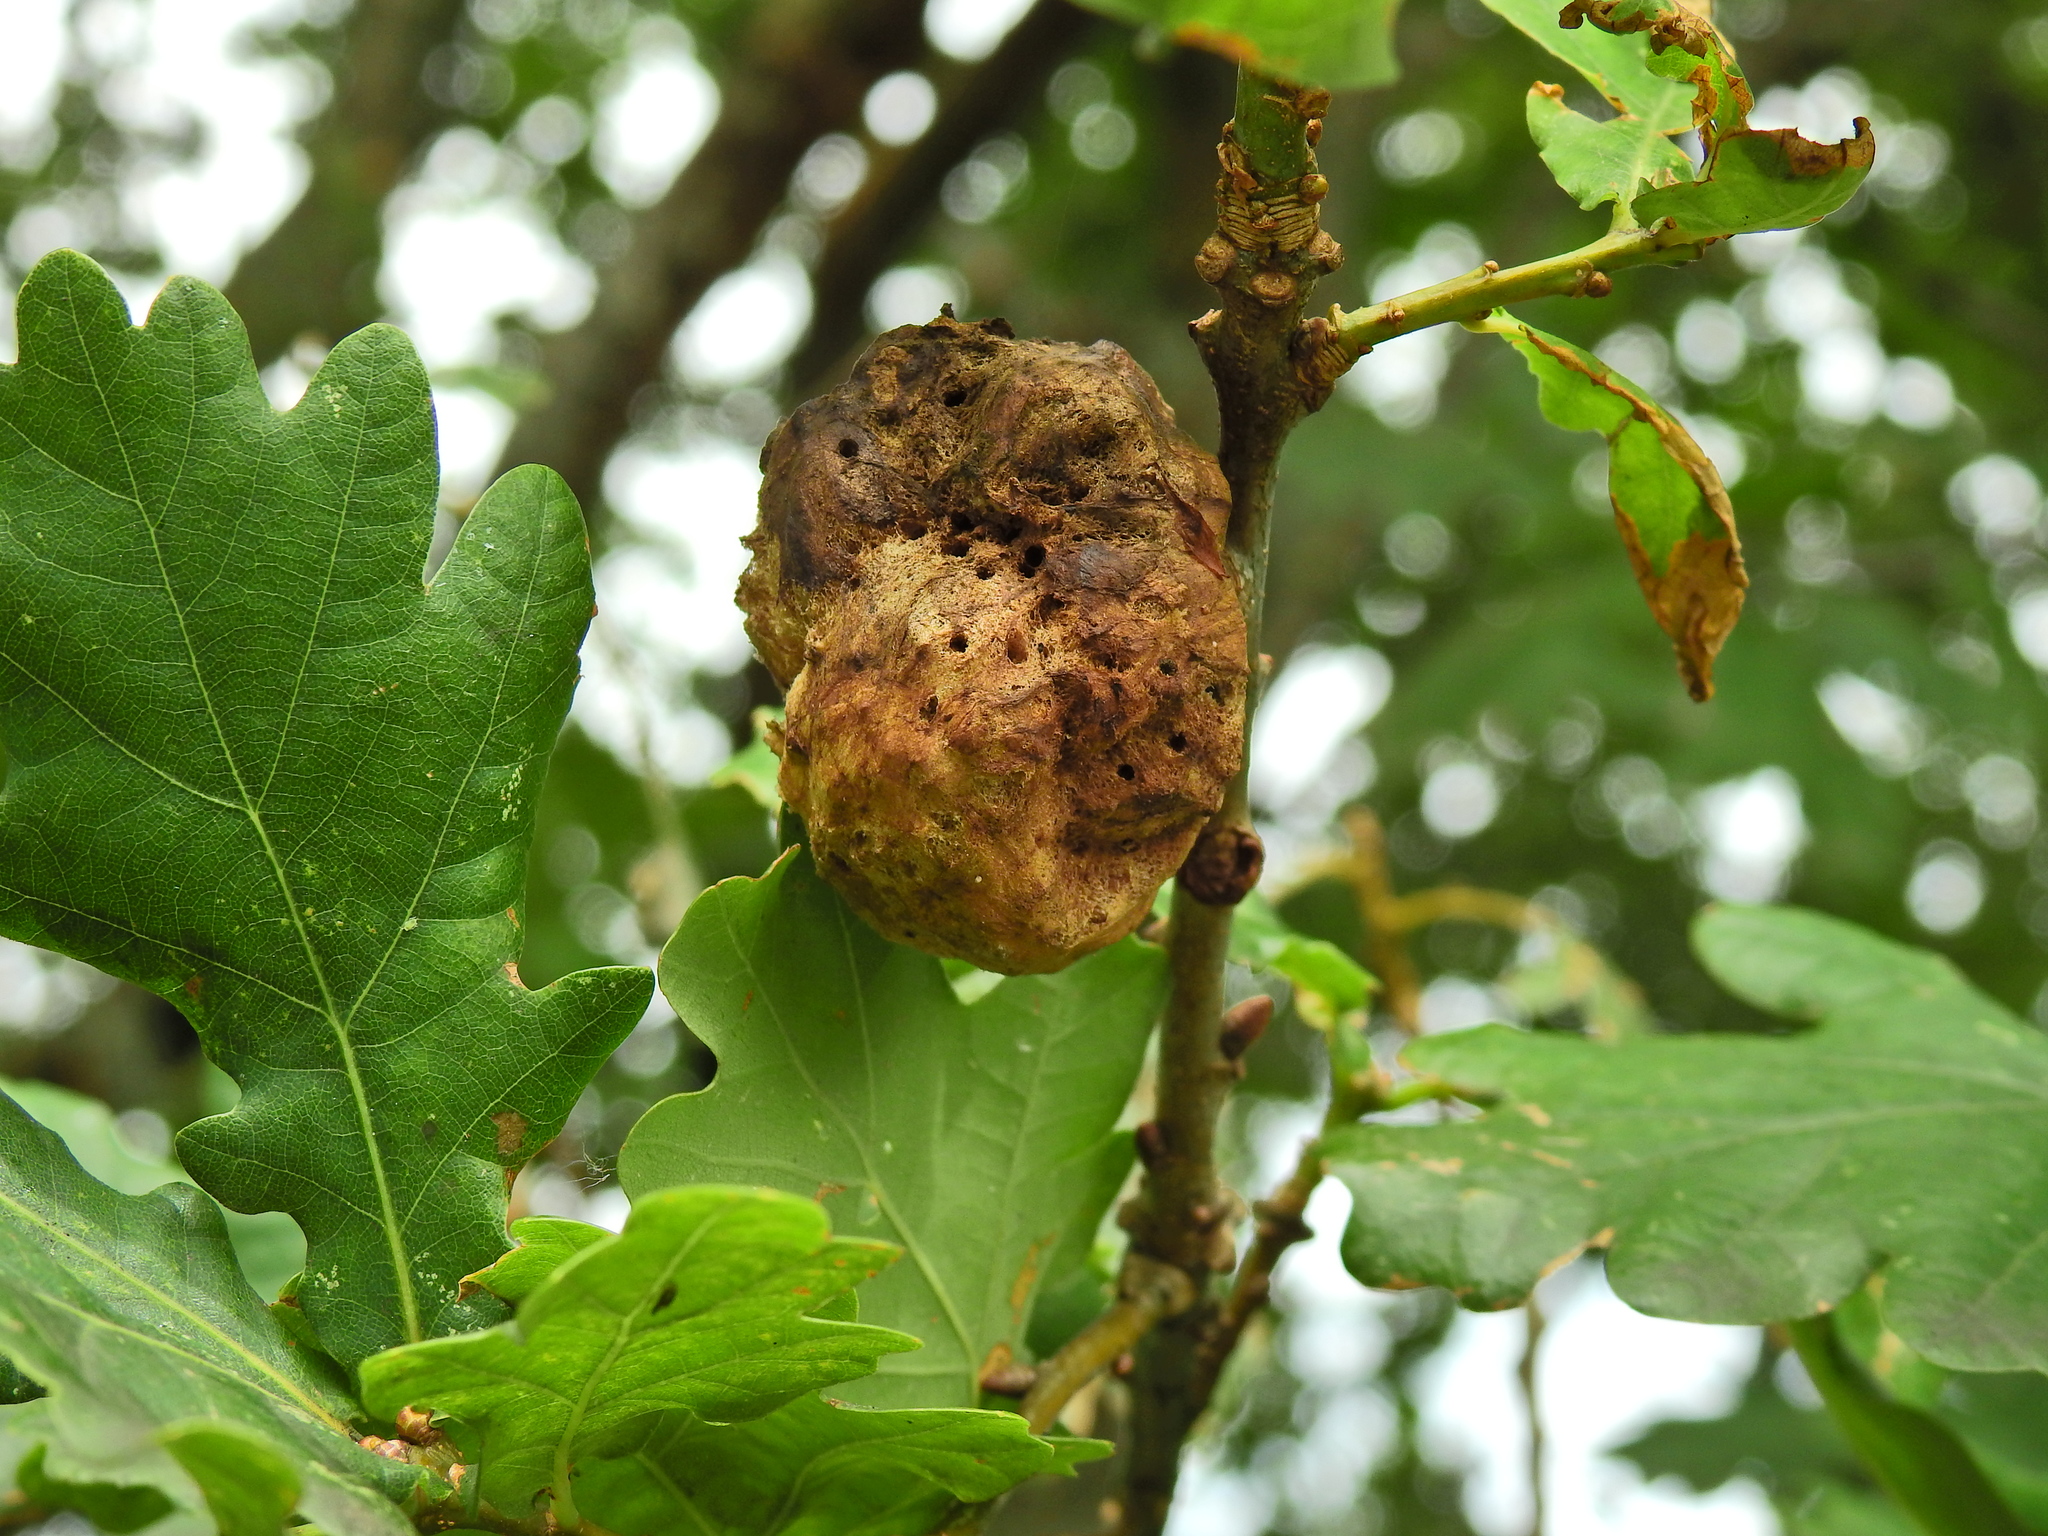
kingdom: Animalia
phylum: Arthropoda
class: Insecta
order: Hymenoptera
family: Cynipidae
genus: Biorhiza
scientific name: Biorhiza pallida
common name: Oak apple
